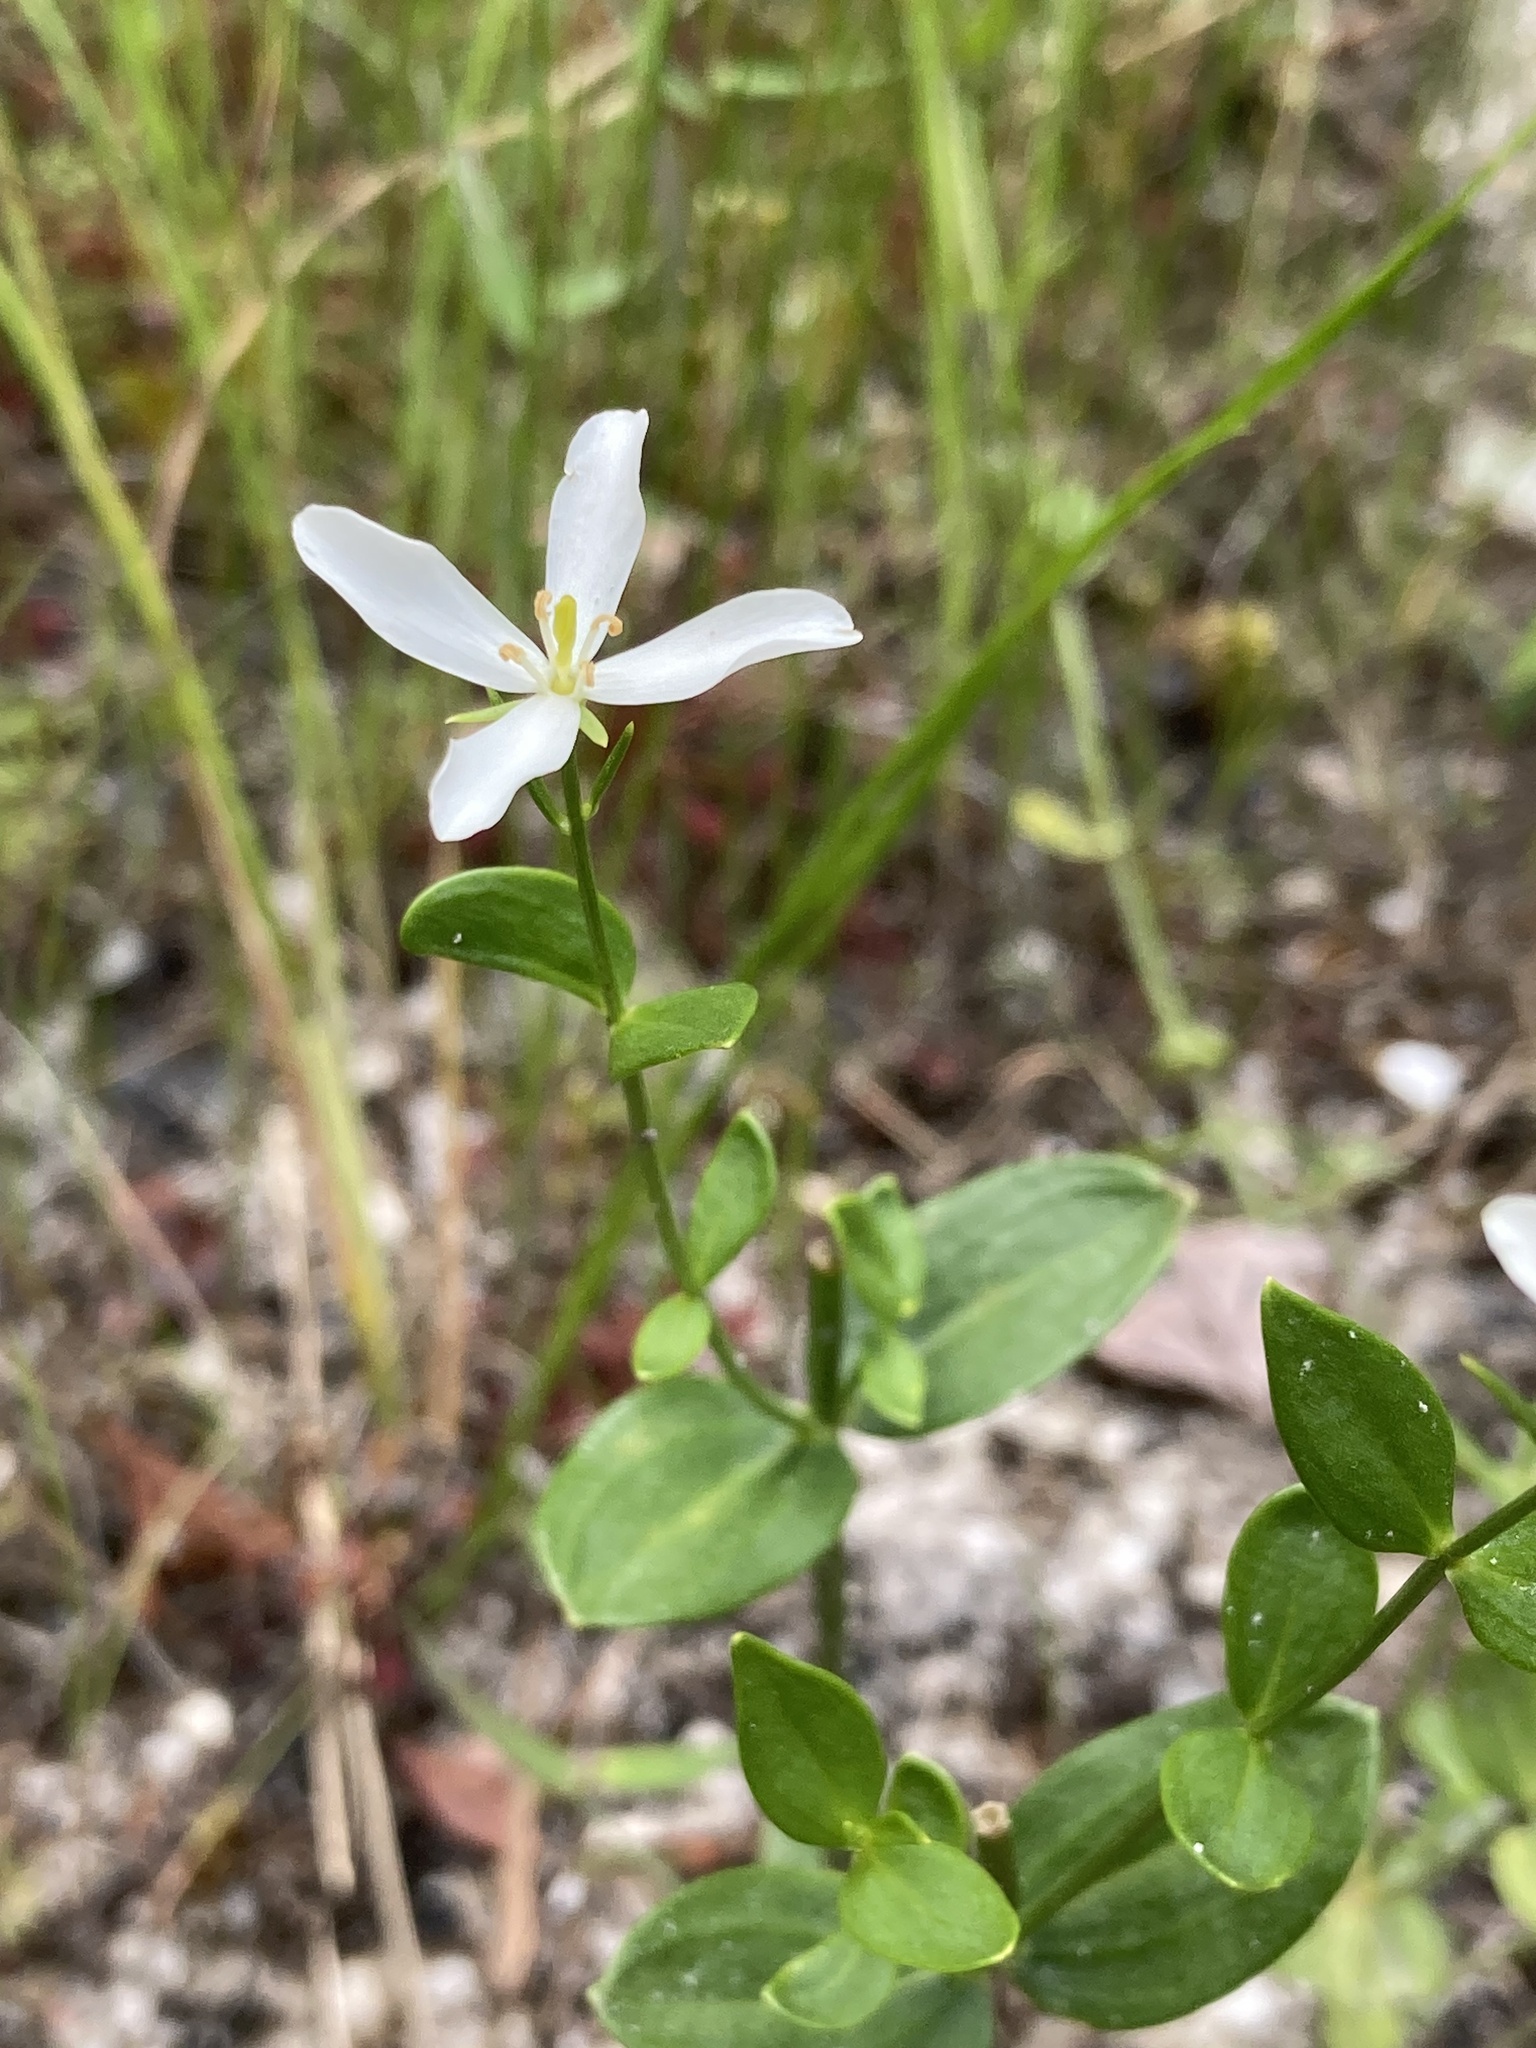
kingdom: Plantae
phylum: Tracheophyta
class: Magnoliopsida
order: Gentianales
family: Gentianaceae
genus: Sabatia
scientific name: Sabatia difformis
